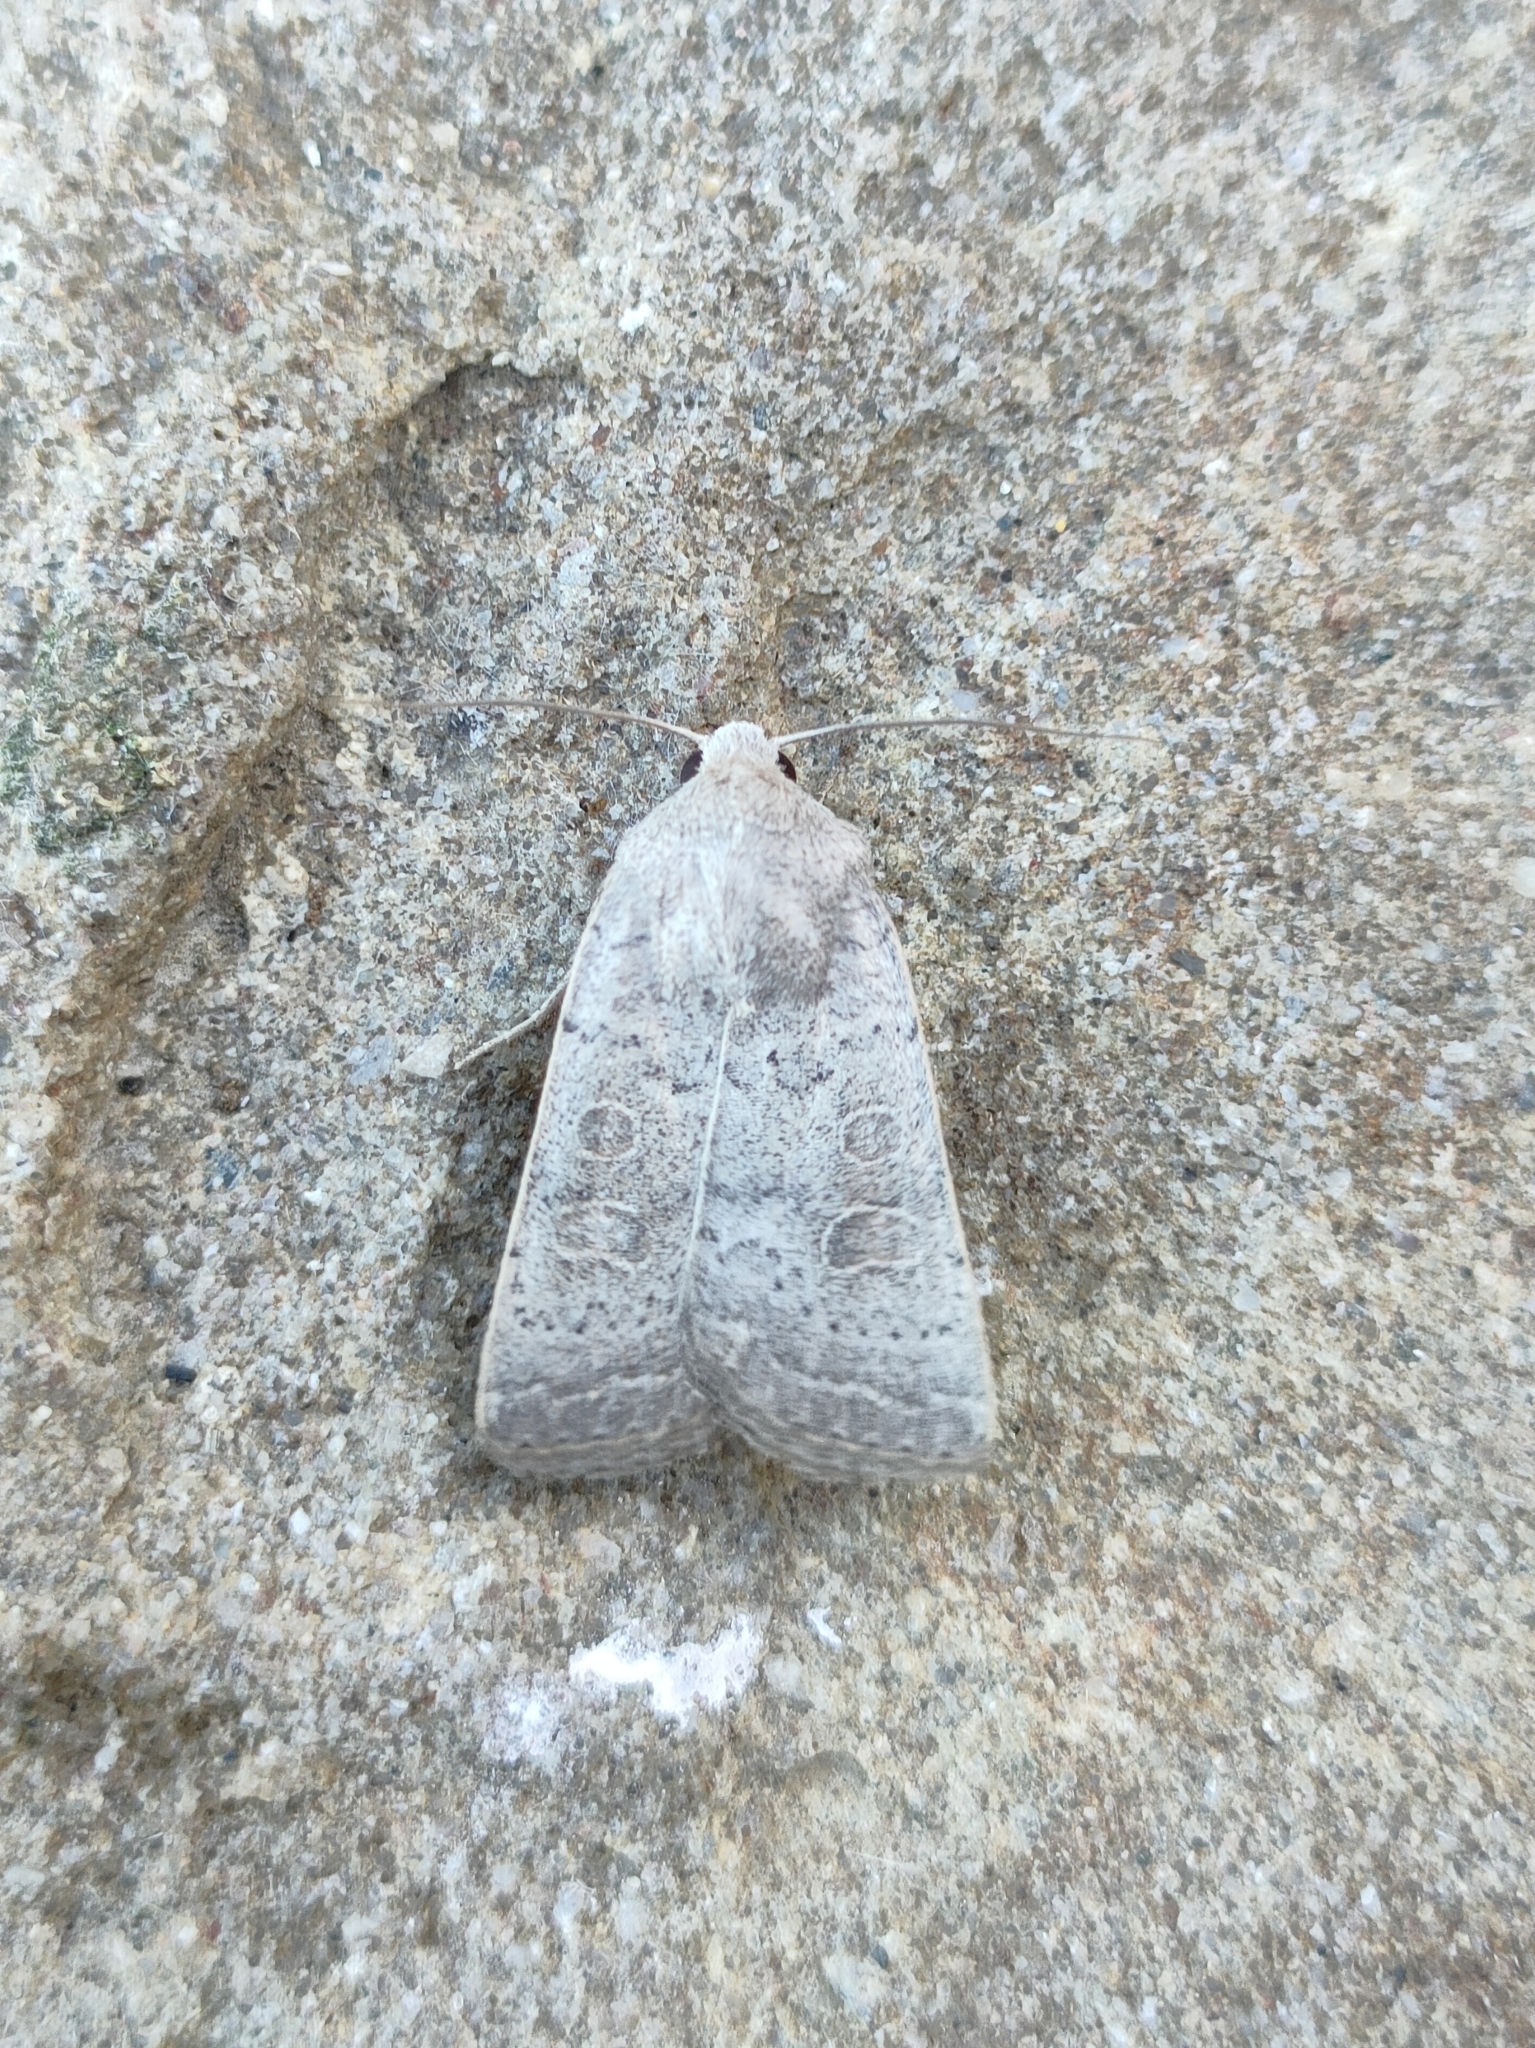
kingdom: Animalia
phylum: Arthropoda
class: Insecta
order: Lepidoptera
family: Noctuidae
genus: Hoplodrina
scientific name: Hoplodrina ambigua
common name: Vine's rustic
